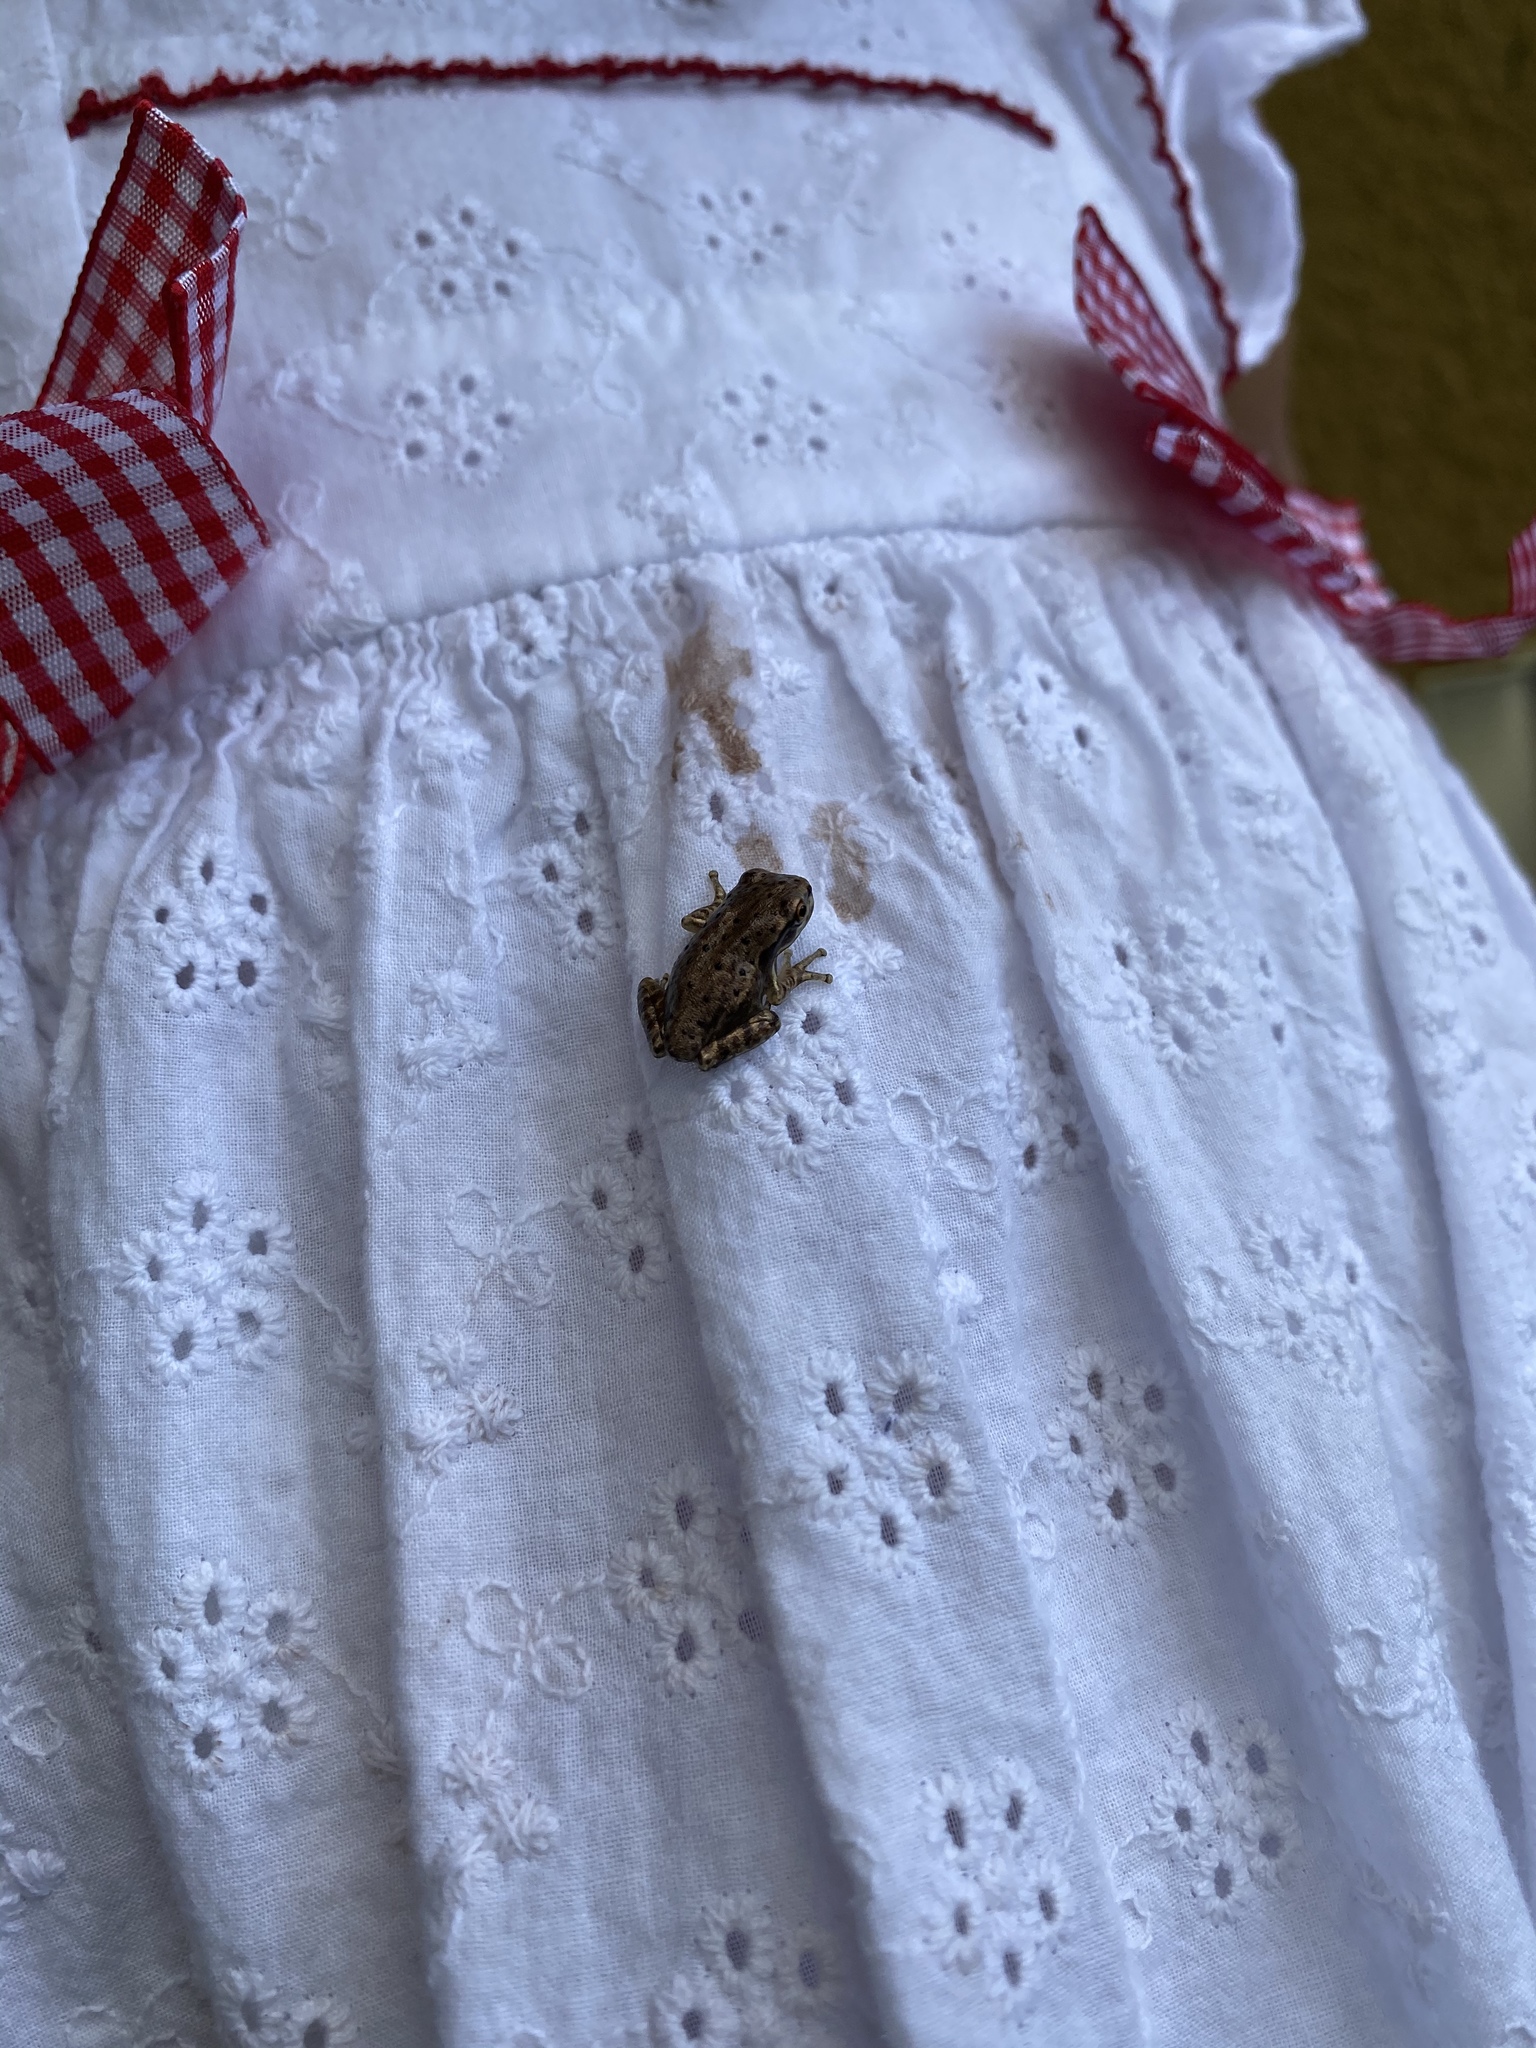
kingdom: Animalia
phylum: Chordata
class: Amphibia
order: Anura
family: Hylidae
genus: Osteopilus
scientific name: Osteopilus septentrionalis
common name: Cuban treefrog
